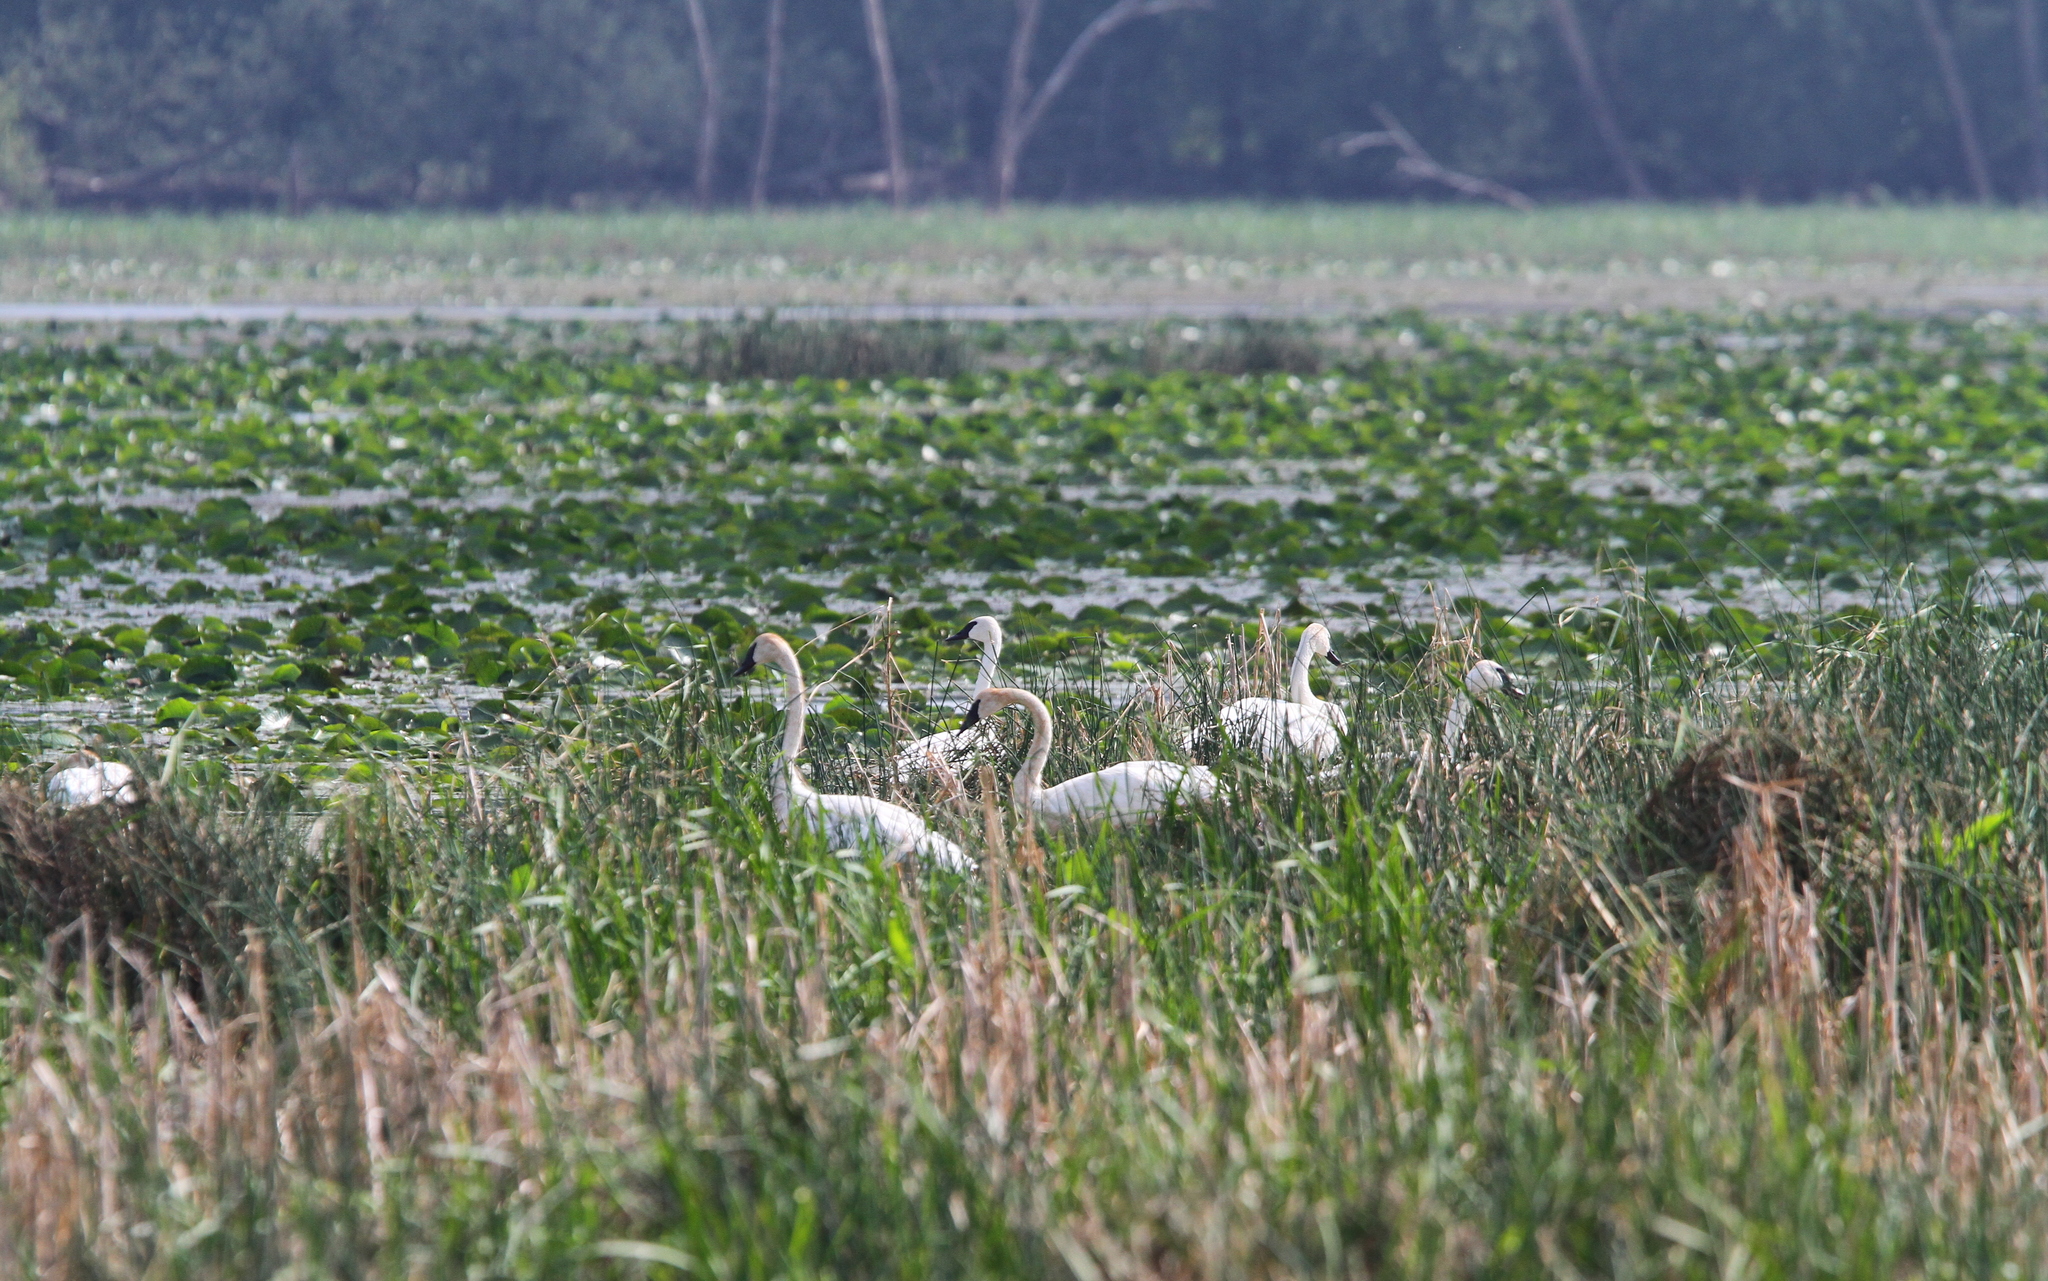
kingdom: Animalia
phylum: Chordata
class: Aves
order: Anseriformes
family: Anatidae
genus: Cygnus
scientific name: Cygnus buccinator
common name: Trumpeter swan
